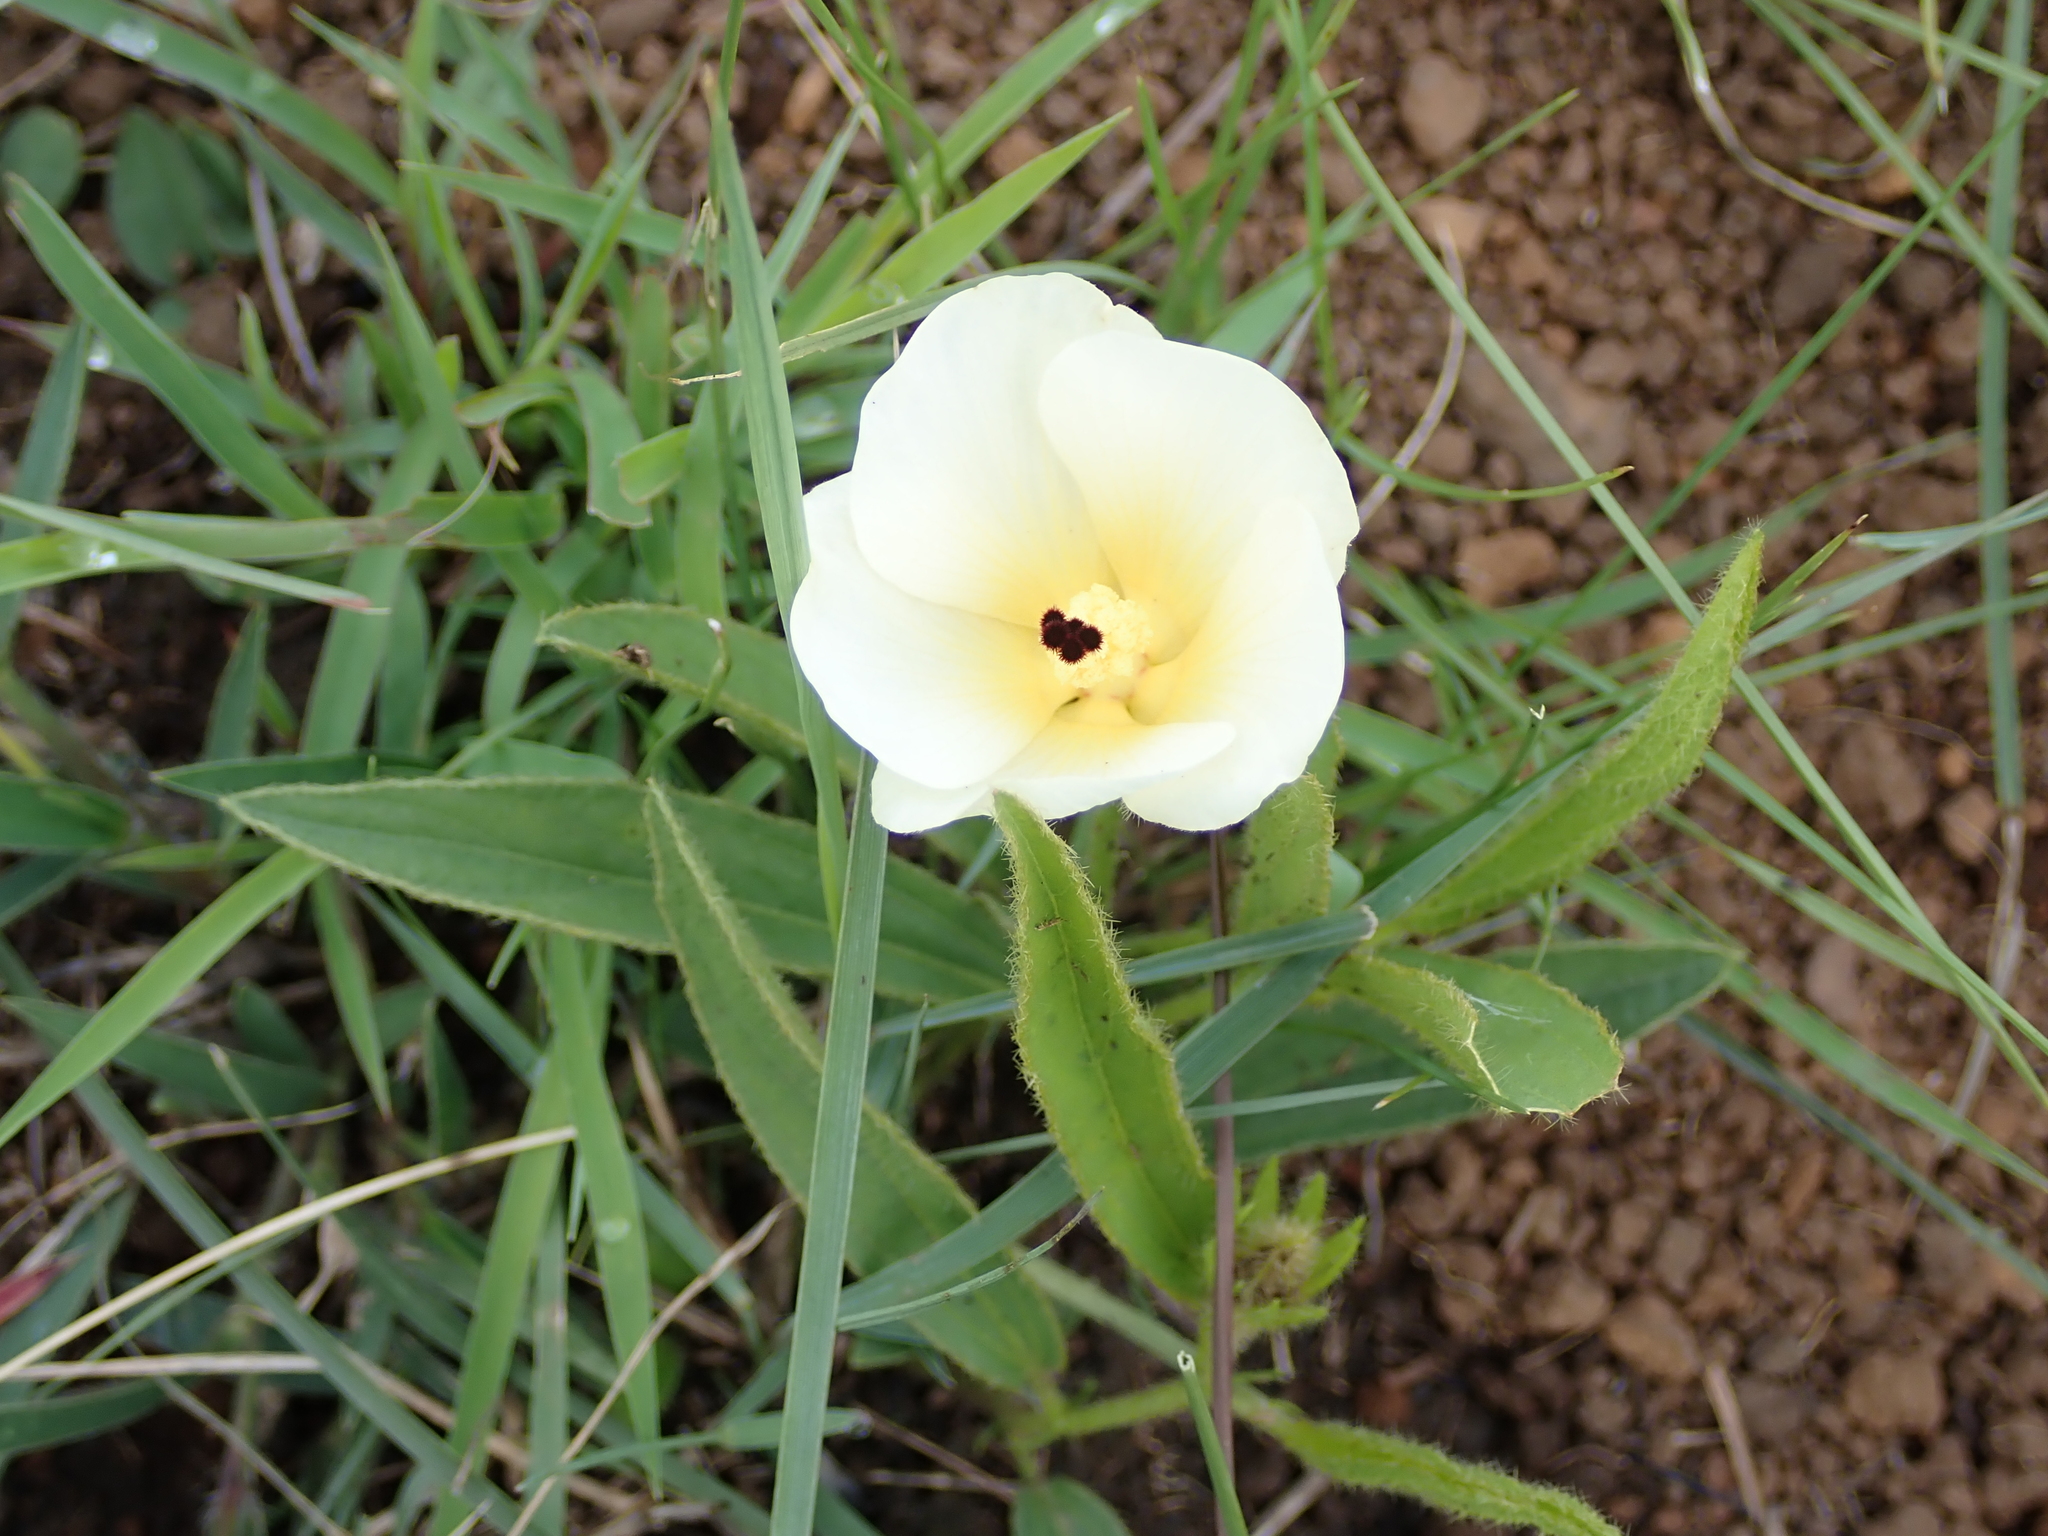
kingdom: Plantae
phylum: Tracheophyta
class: Magnoliopsida
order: Malvales
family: Malvaceae
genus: Hibiscus
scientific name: Hibiscus aethiopicus
